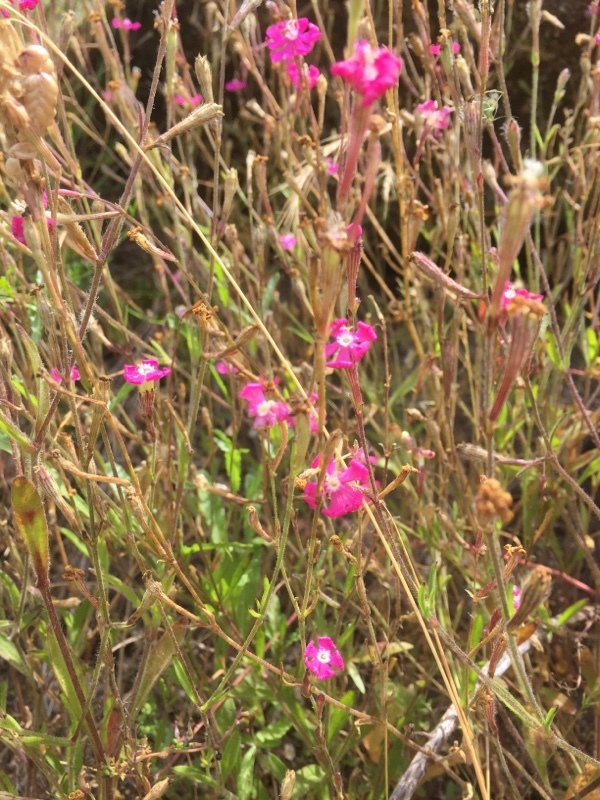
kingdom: Plantae
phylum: Tracheophyta
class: Magnoliopsida
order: Caryophyllales
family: Caryophyllaceae
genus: Dianthus
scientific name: Dianthus deltoides
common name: Maiden pink
